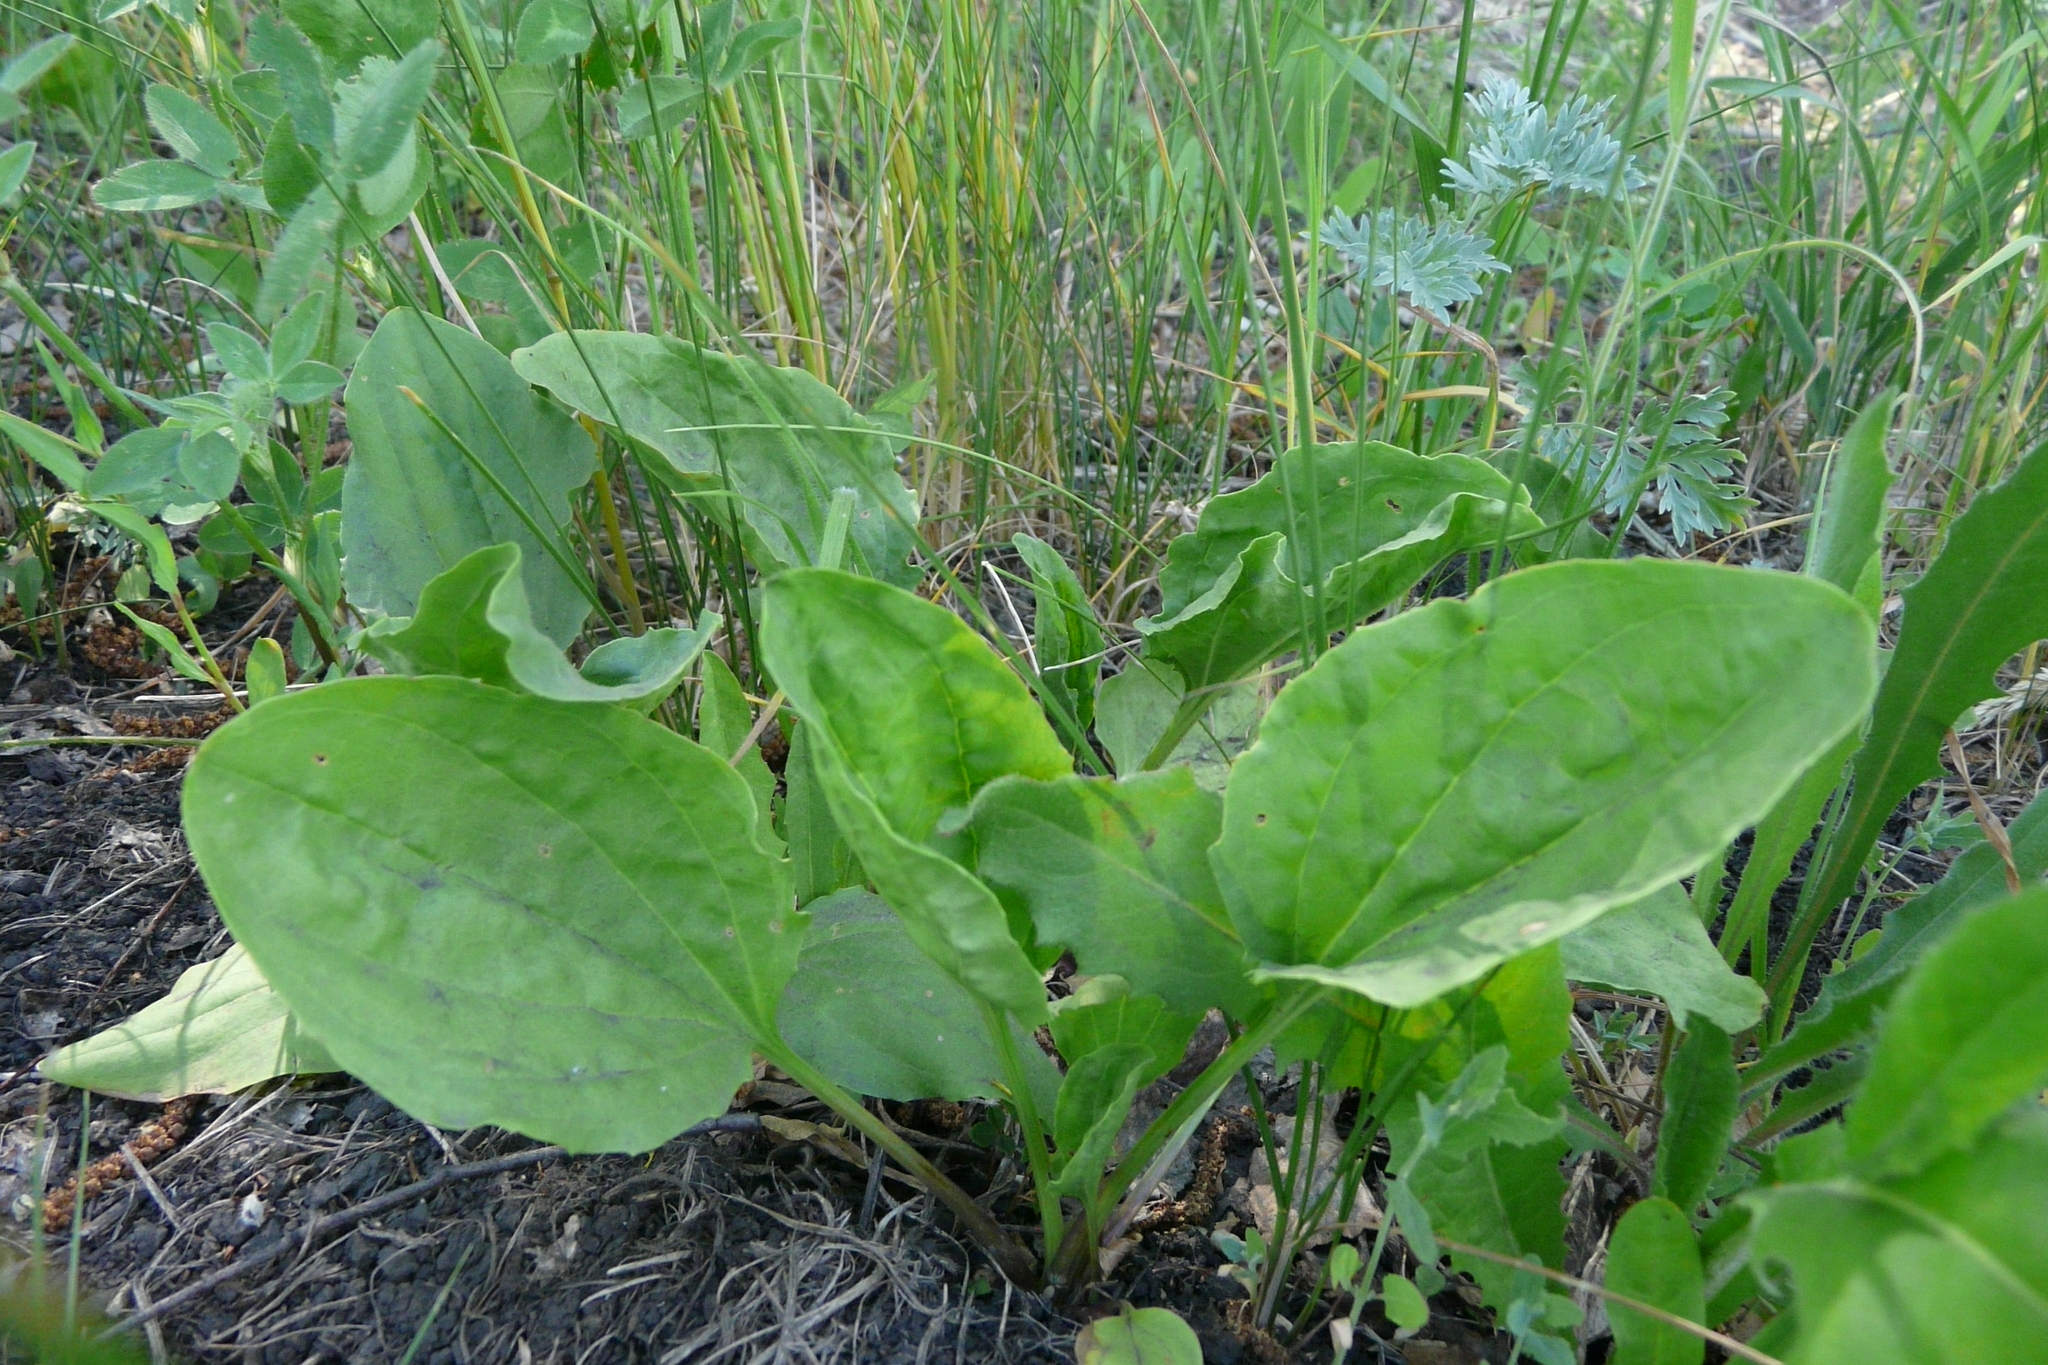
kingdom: Plantae
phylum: Tracheophyta
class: Magnoliopsida
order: Lamiales
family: Plantaginaceae
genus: Plantago
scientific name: Plantago major
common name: Common plantain
